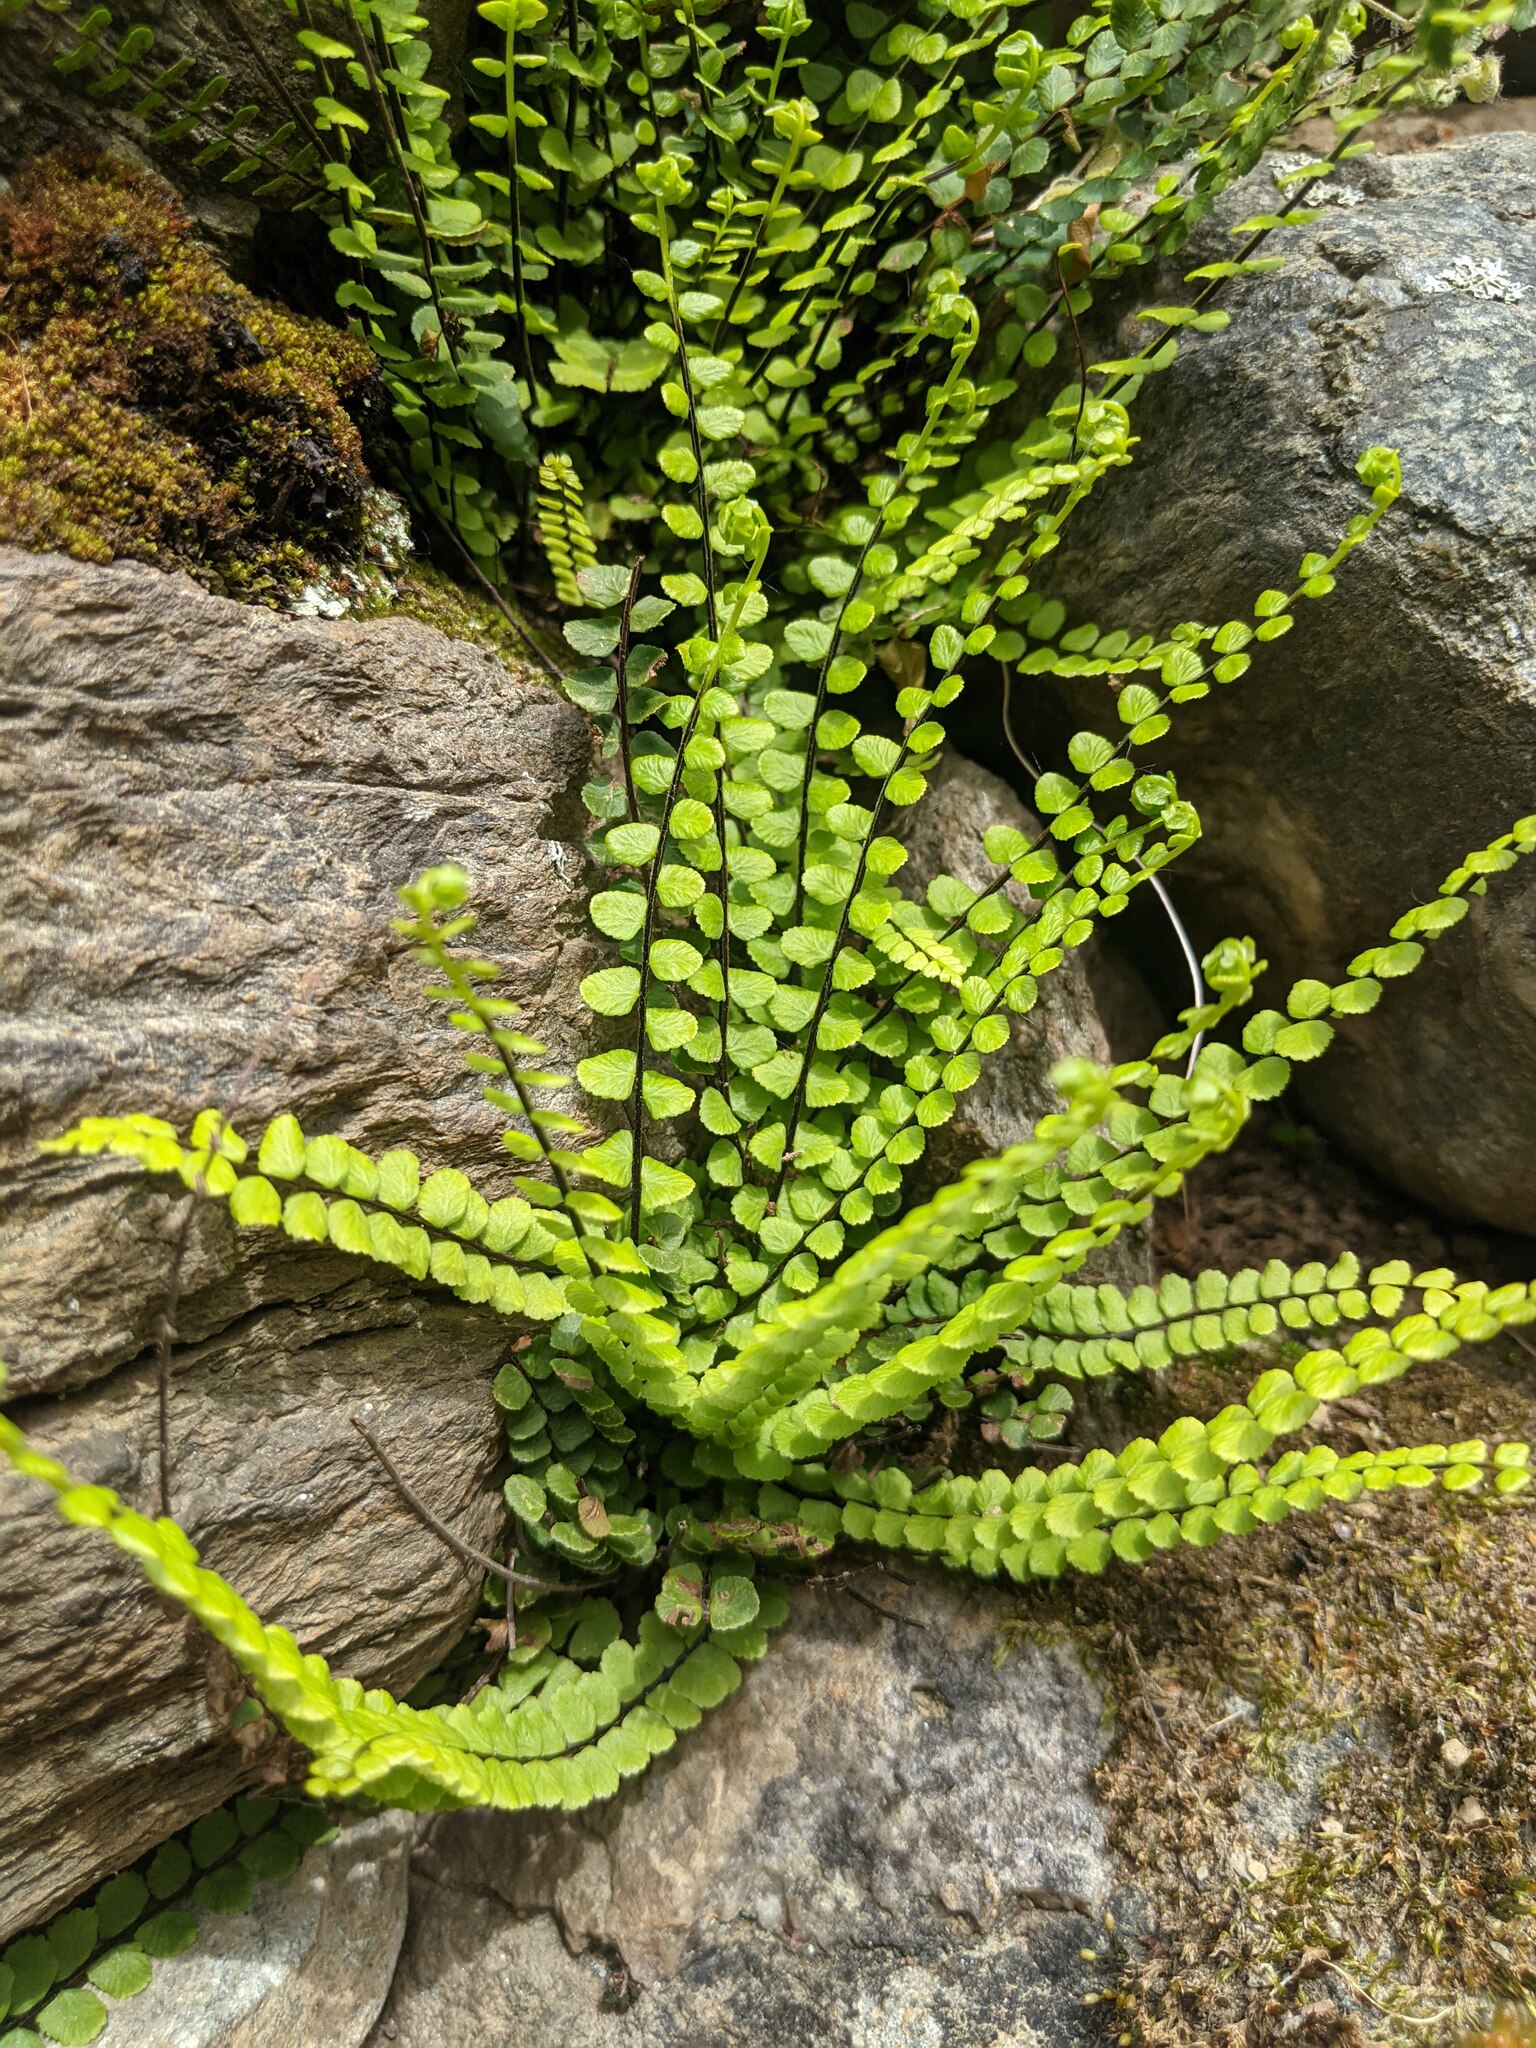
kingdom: Plantae
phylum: Tracheophyta
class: Polypodiopsida
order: Polypodiales
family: Aspleniaceae
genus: Asplenium
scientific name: Asplenium trichomanes
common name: Maidenhair spleenwort
